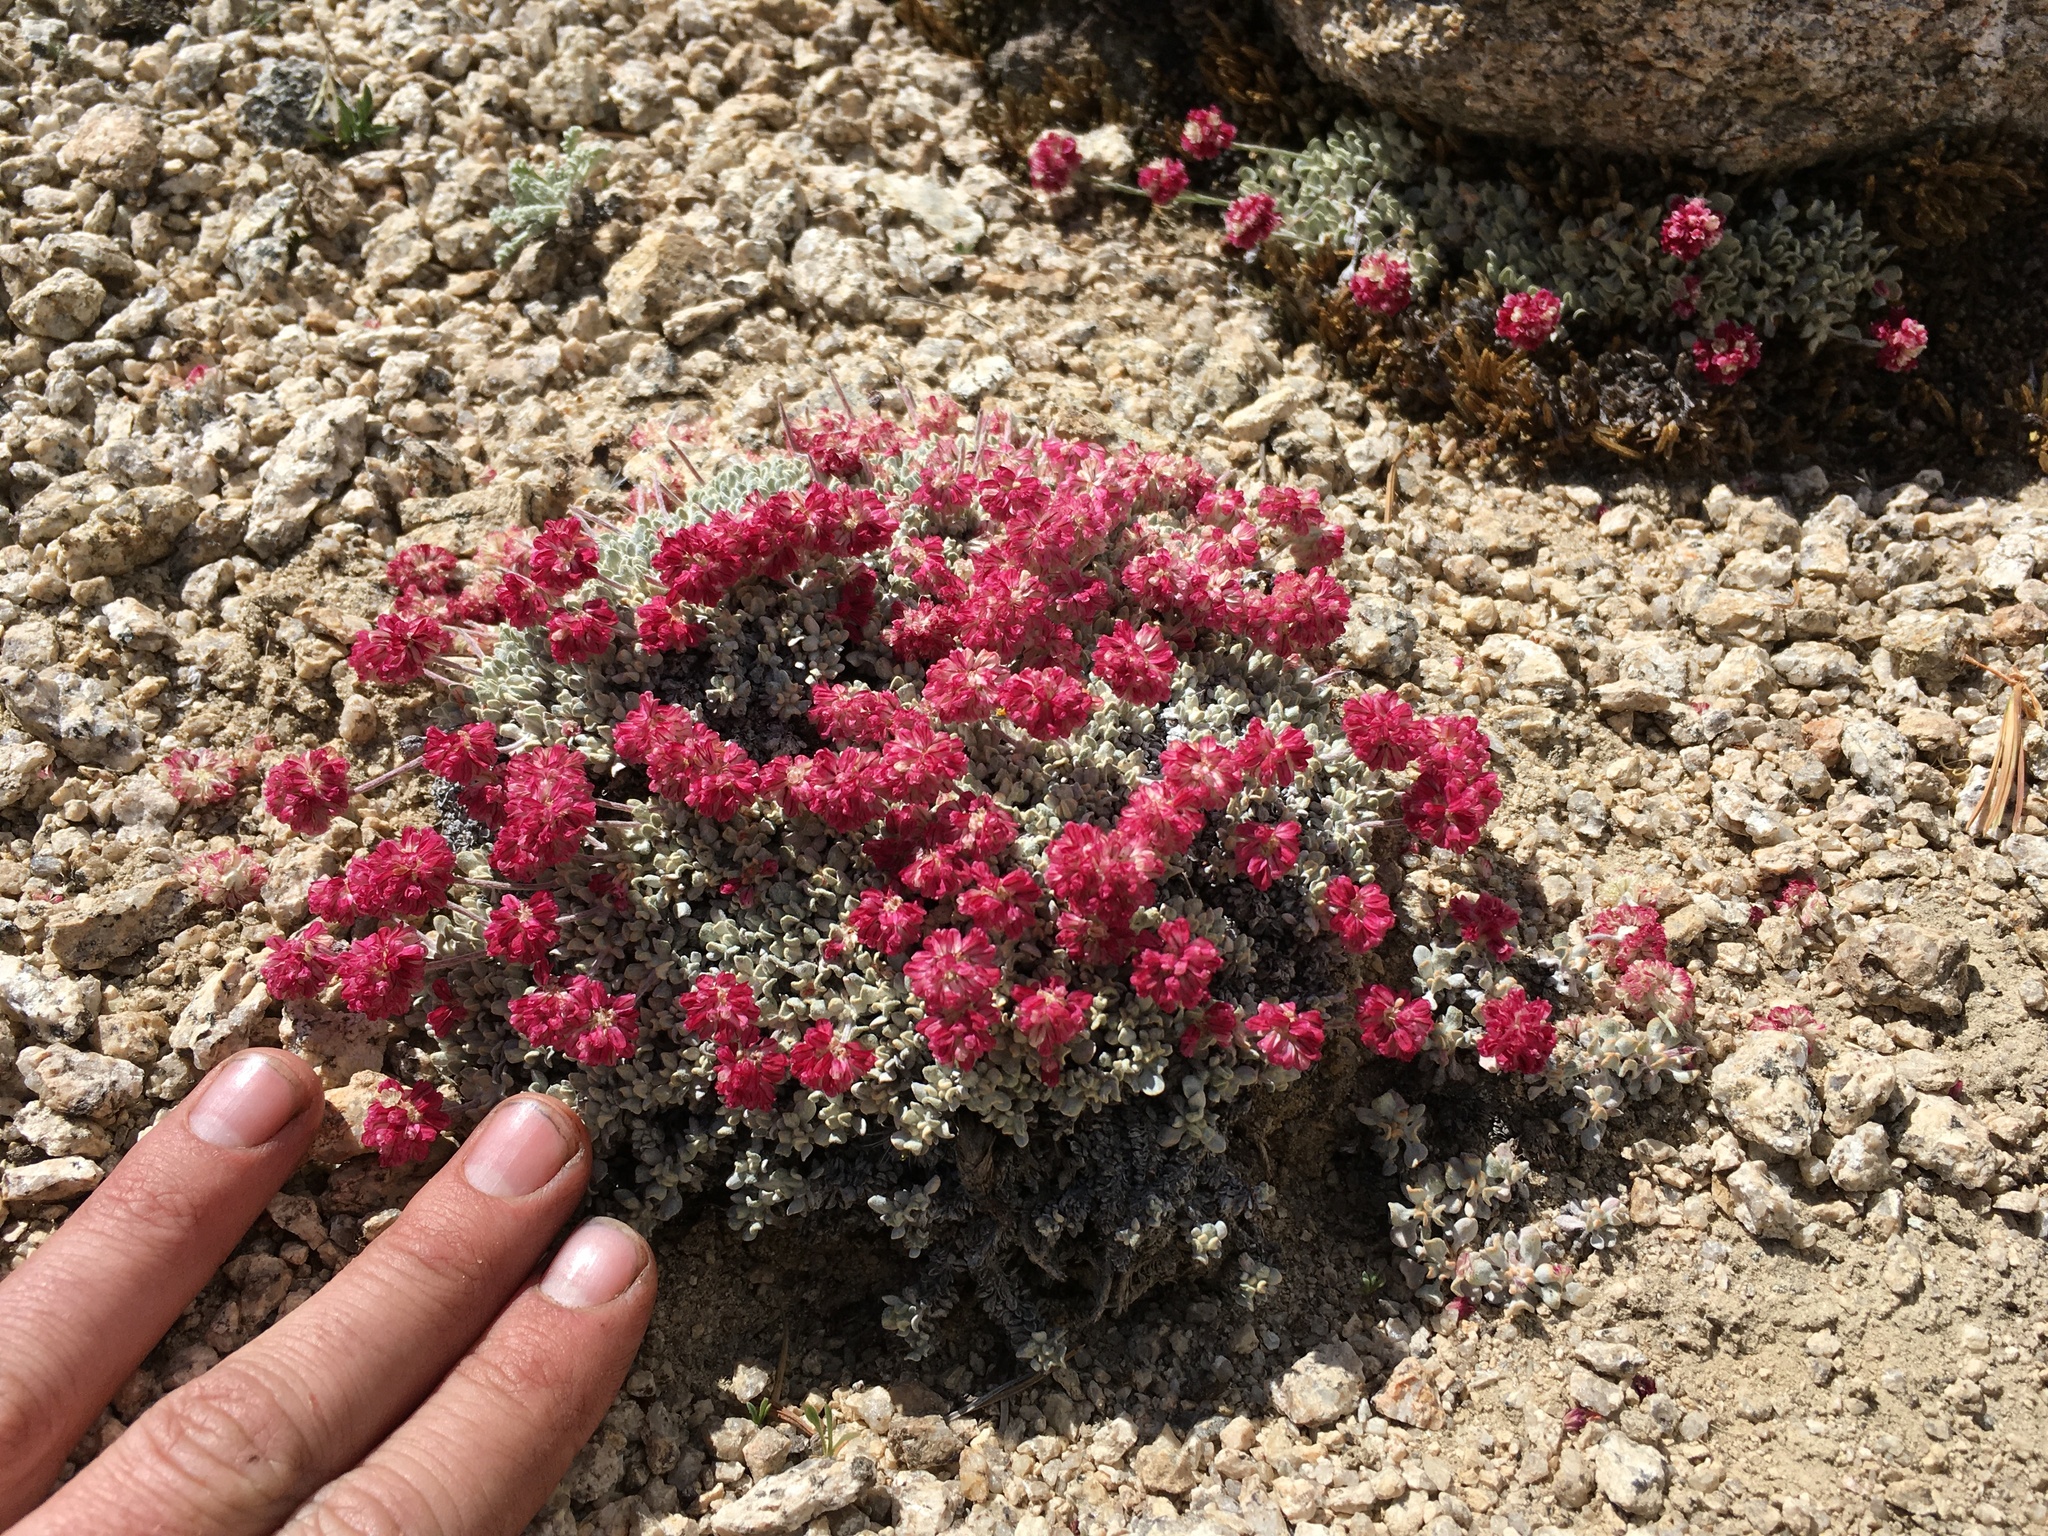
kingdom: Plantae
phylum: Tracheophyta
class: Magnoliopsida
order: Caryophyllales
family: Polygonaceae
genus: Eriogonum
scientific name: Eriogonum ovalifolium
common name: Cushion buckwheat
